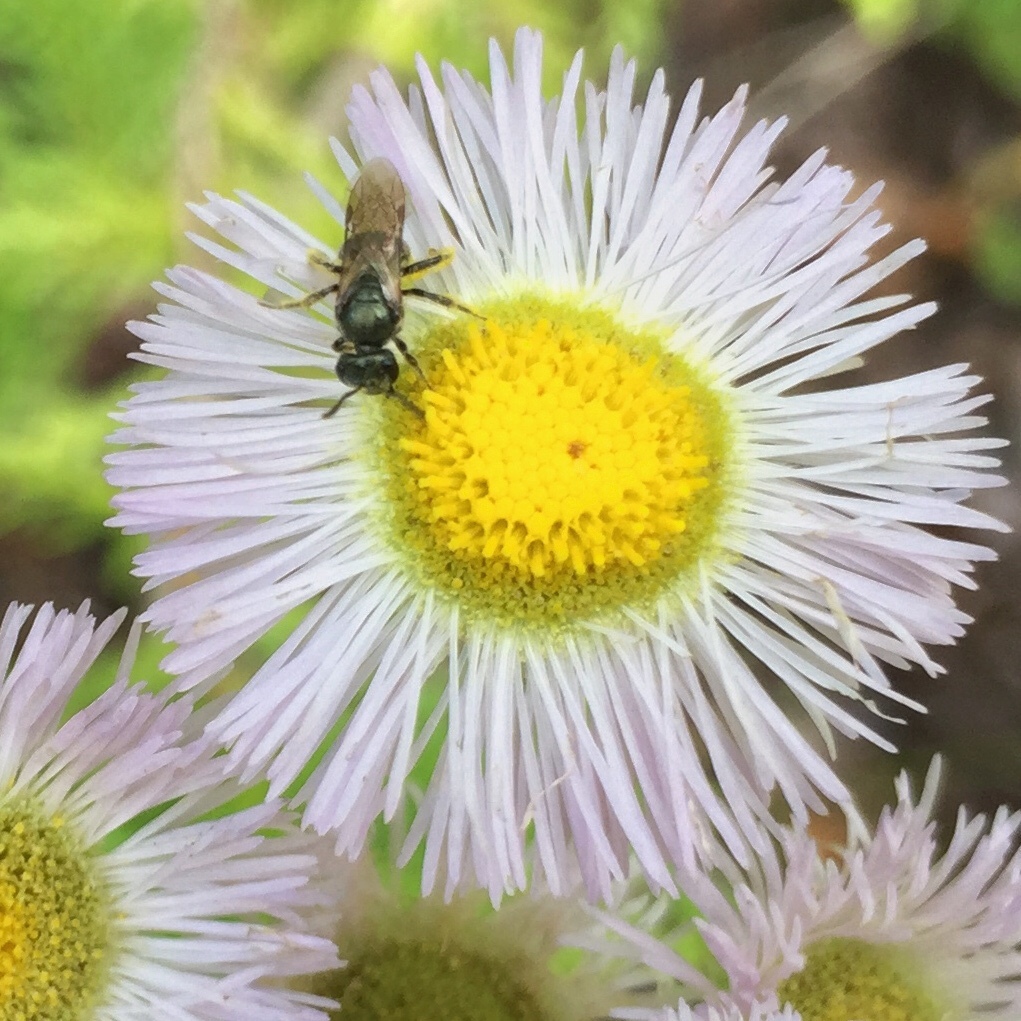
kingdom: Plantae
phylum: Tracheophyta
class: Magnoliopsida
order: Asterales
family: Asteraceae
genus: Erigeron
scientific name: Erigeron philadelphicus
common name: Robin's-plantain
